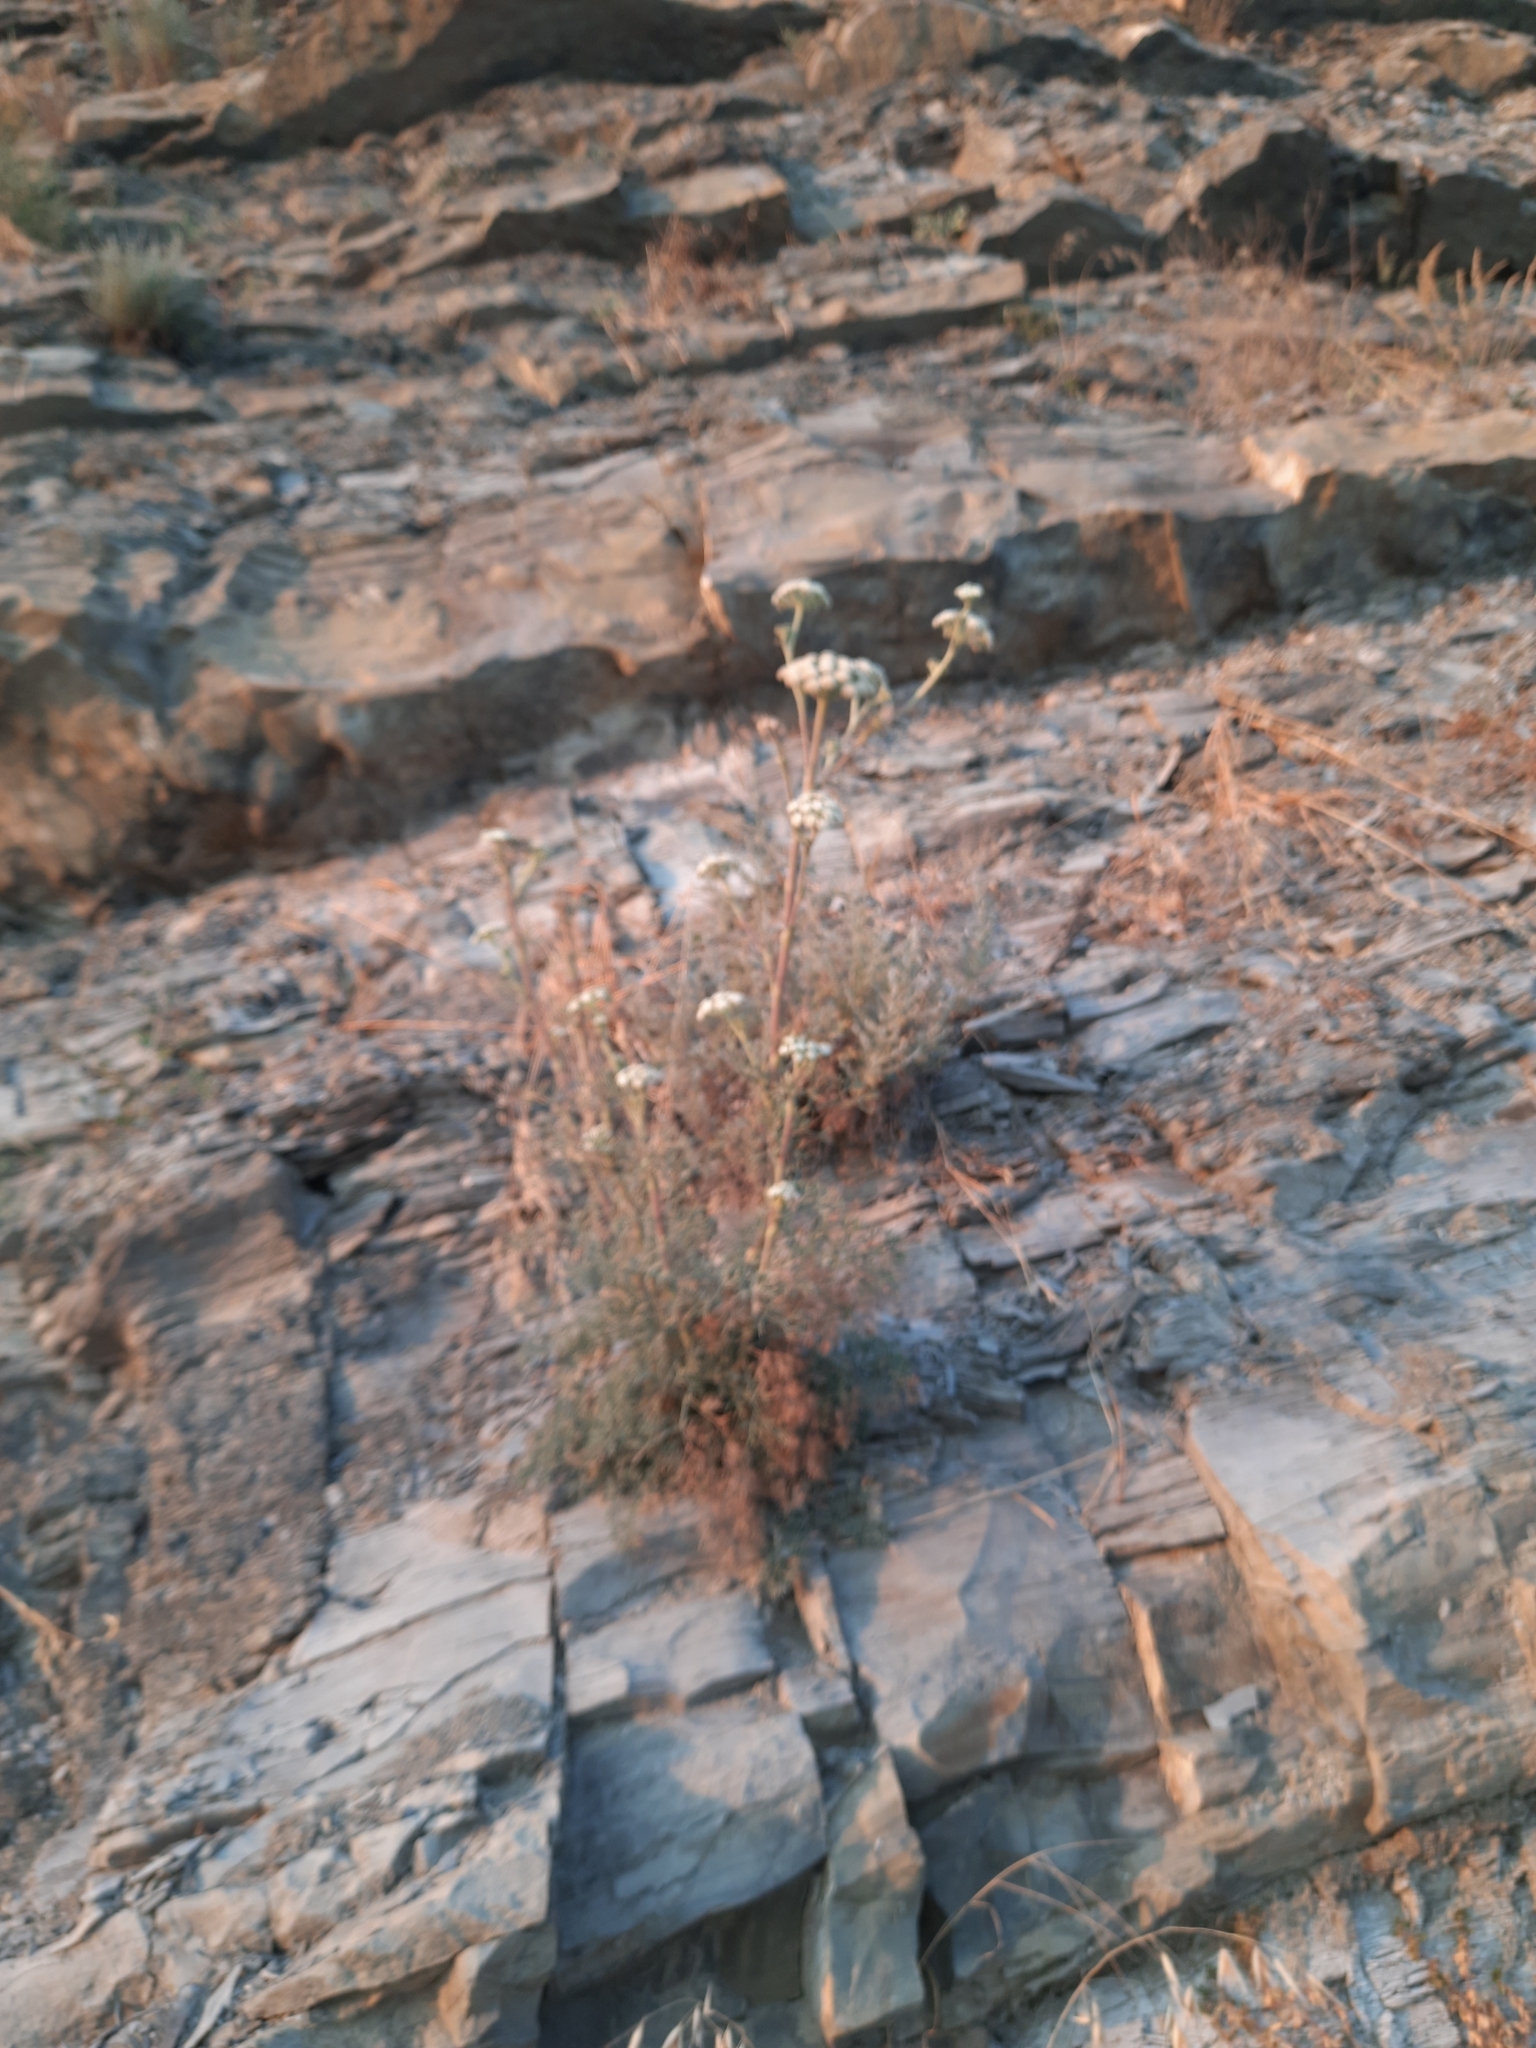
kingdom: Plantae
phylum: Tracheophyta
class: Magnoliopsida
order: Apiales
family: Apiaceae
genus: Seseli
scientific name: Seseli ponticum
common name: Pontic seseli
